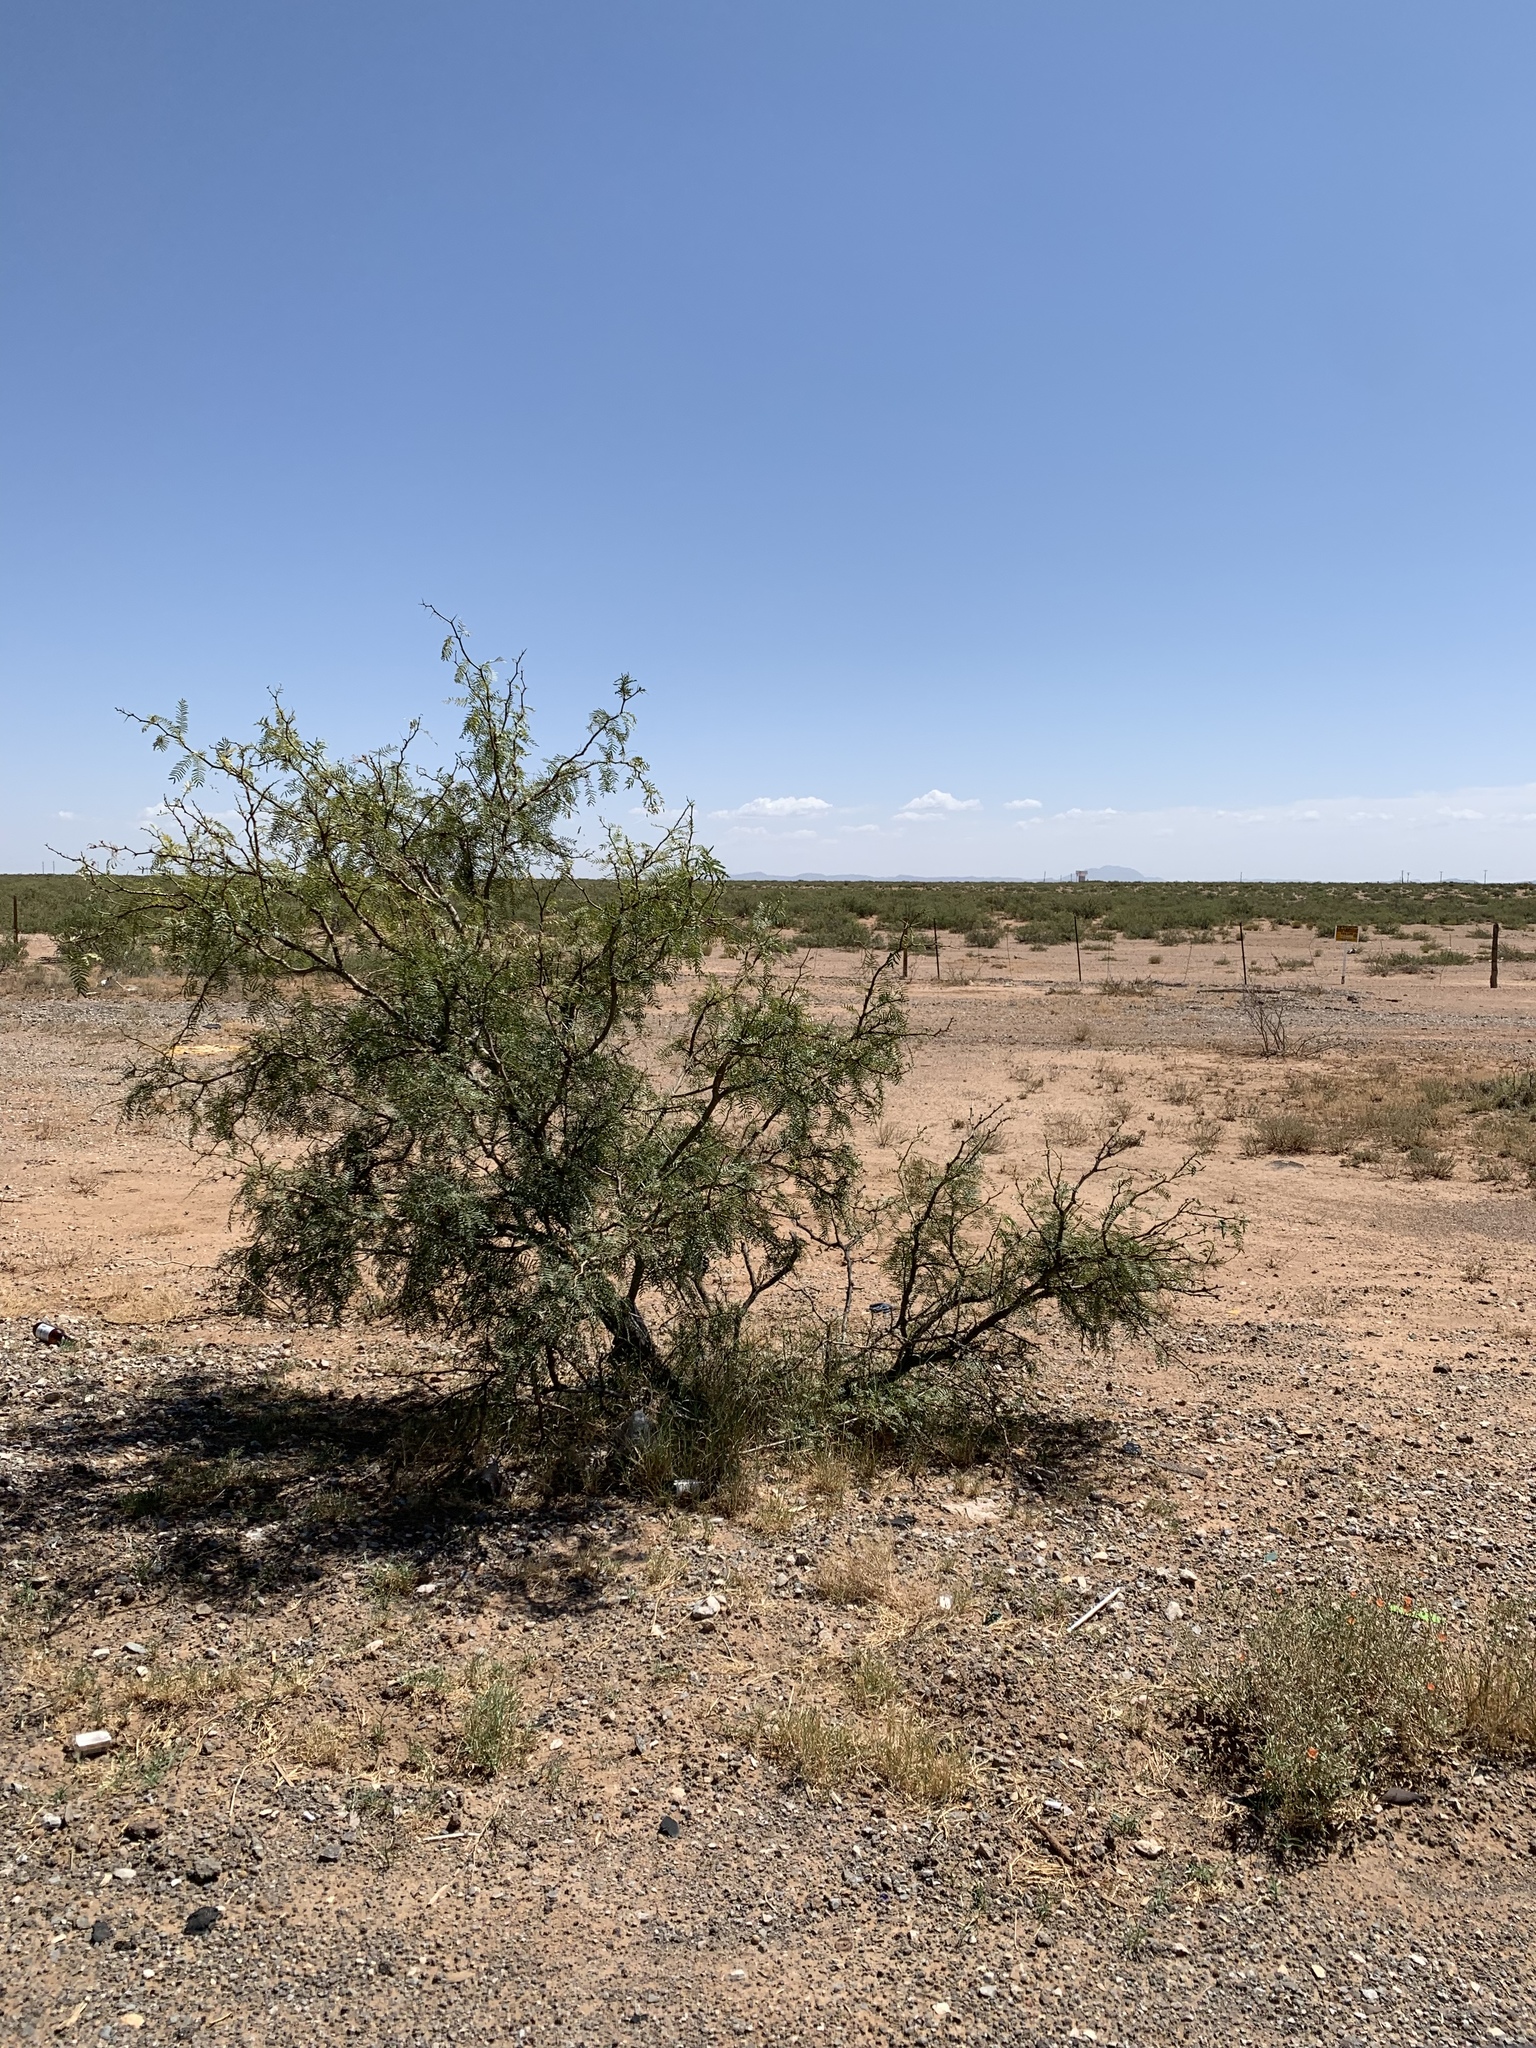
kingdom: Plantae
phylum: Tracheophyta
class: Magnoliopsida
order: Fabales
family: Fabaceae
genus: Prosopis
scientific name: Prosopis glandulosa
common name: Honey mesquite
